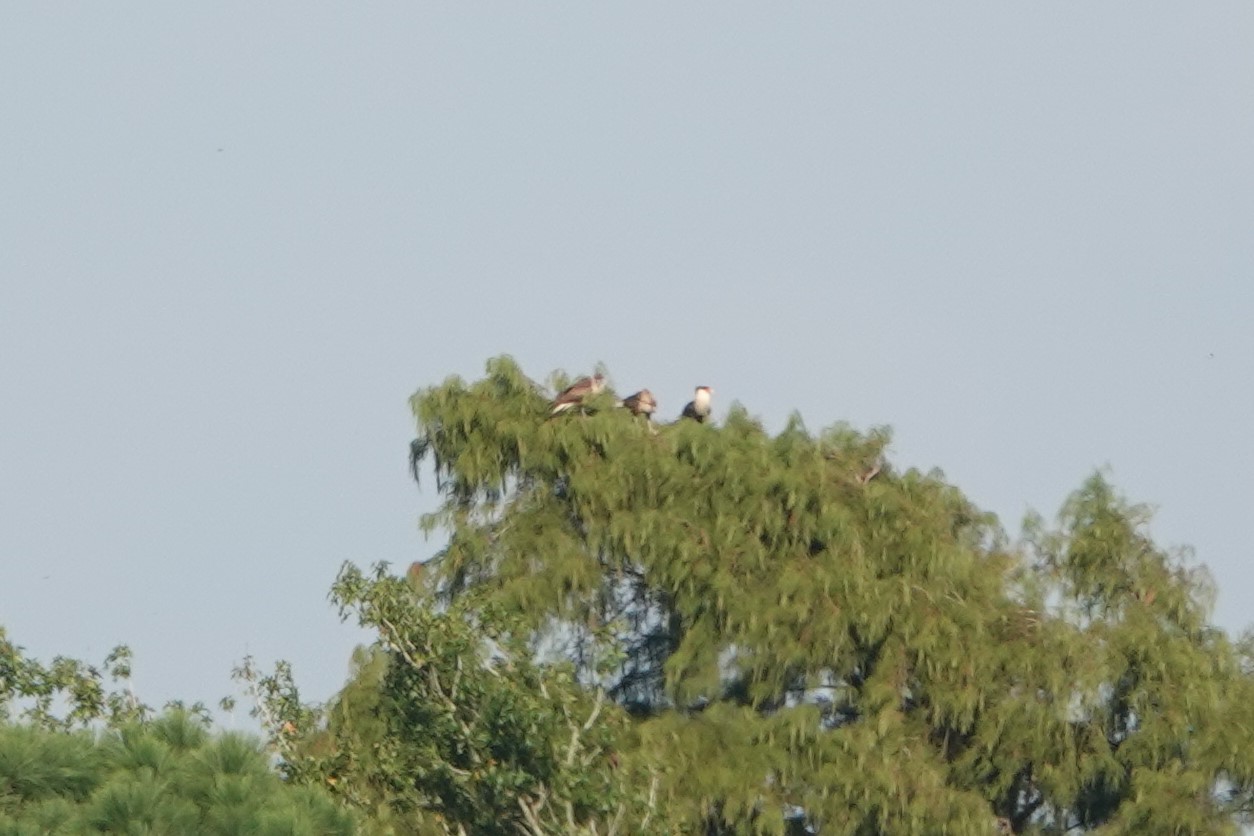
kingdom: Animalia
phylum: Chordata
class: Aves
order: Falconiformes
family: Falconidae
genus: Caracara
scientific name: Caracara plancus
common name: Southern caracara
